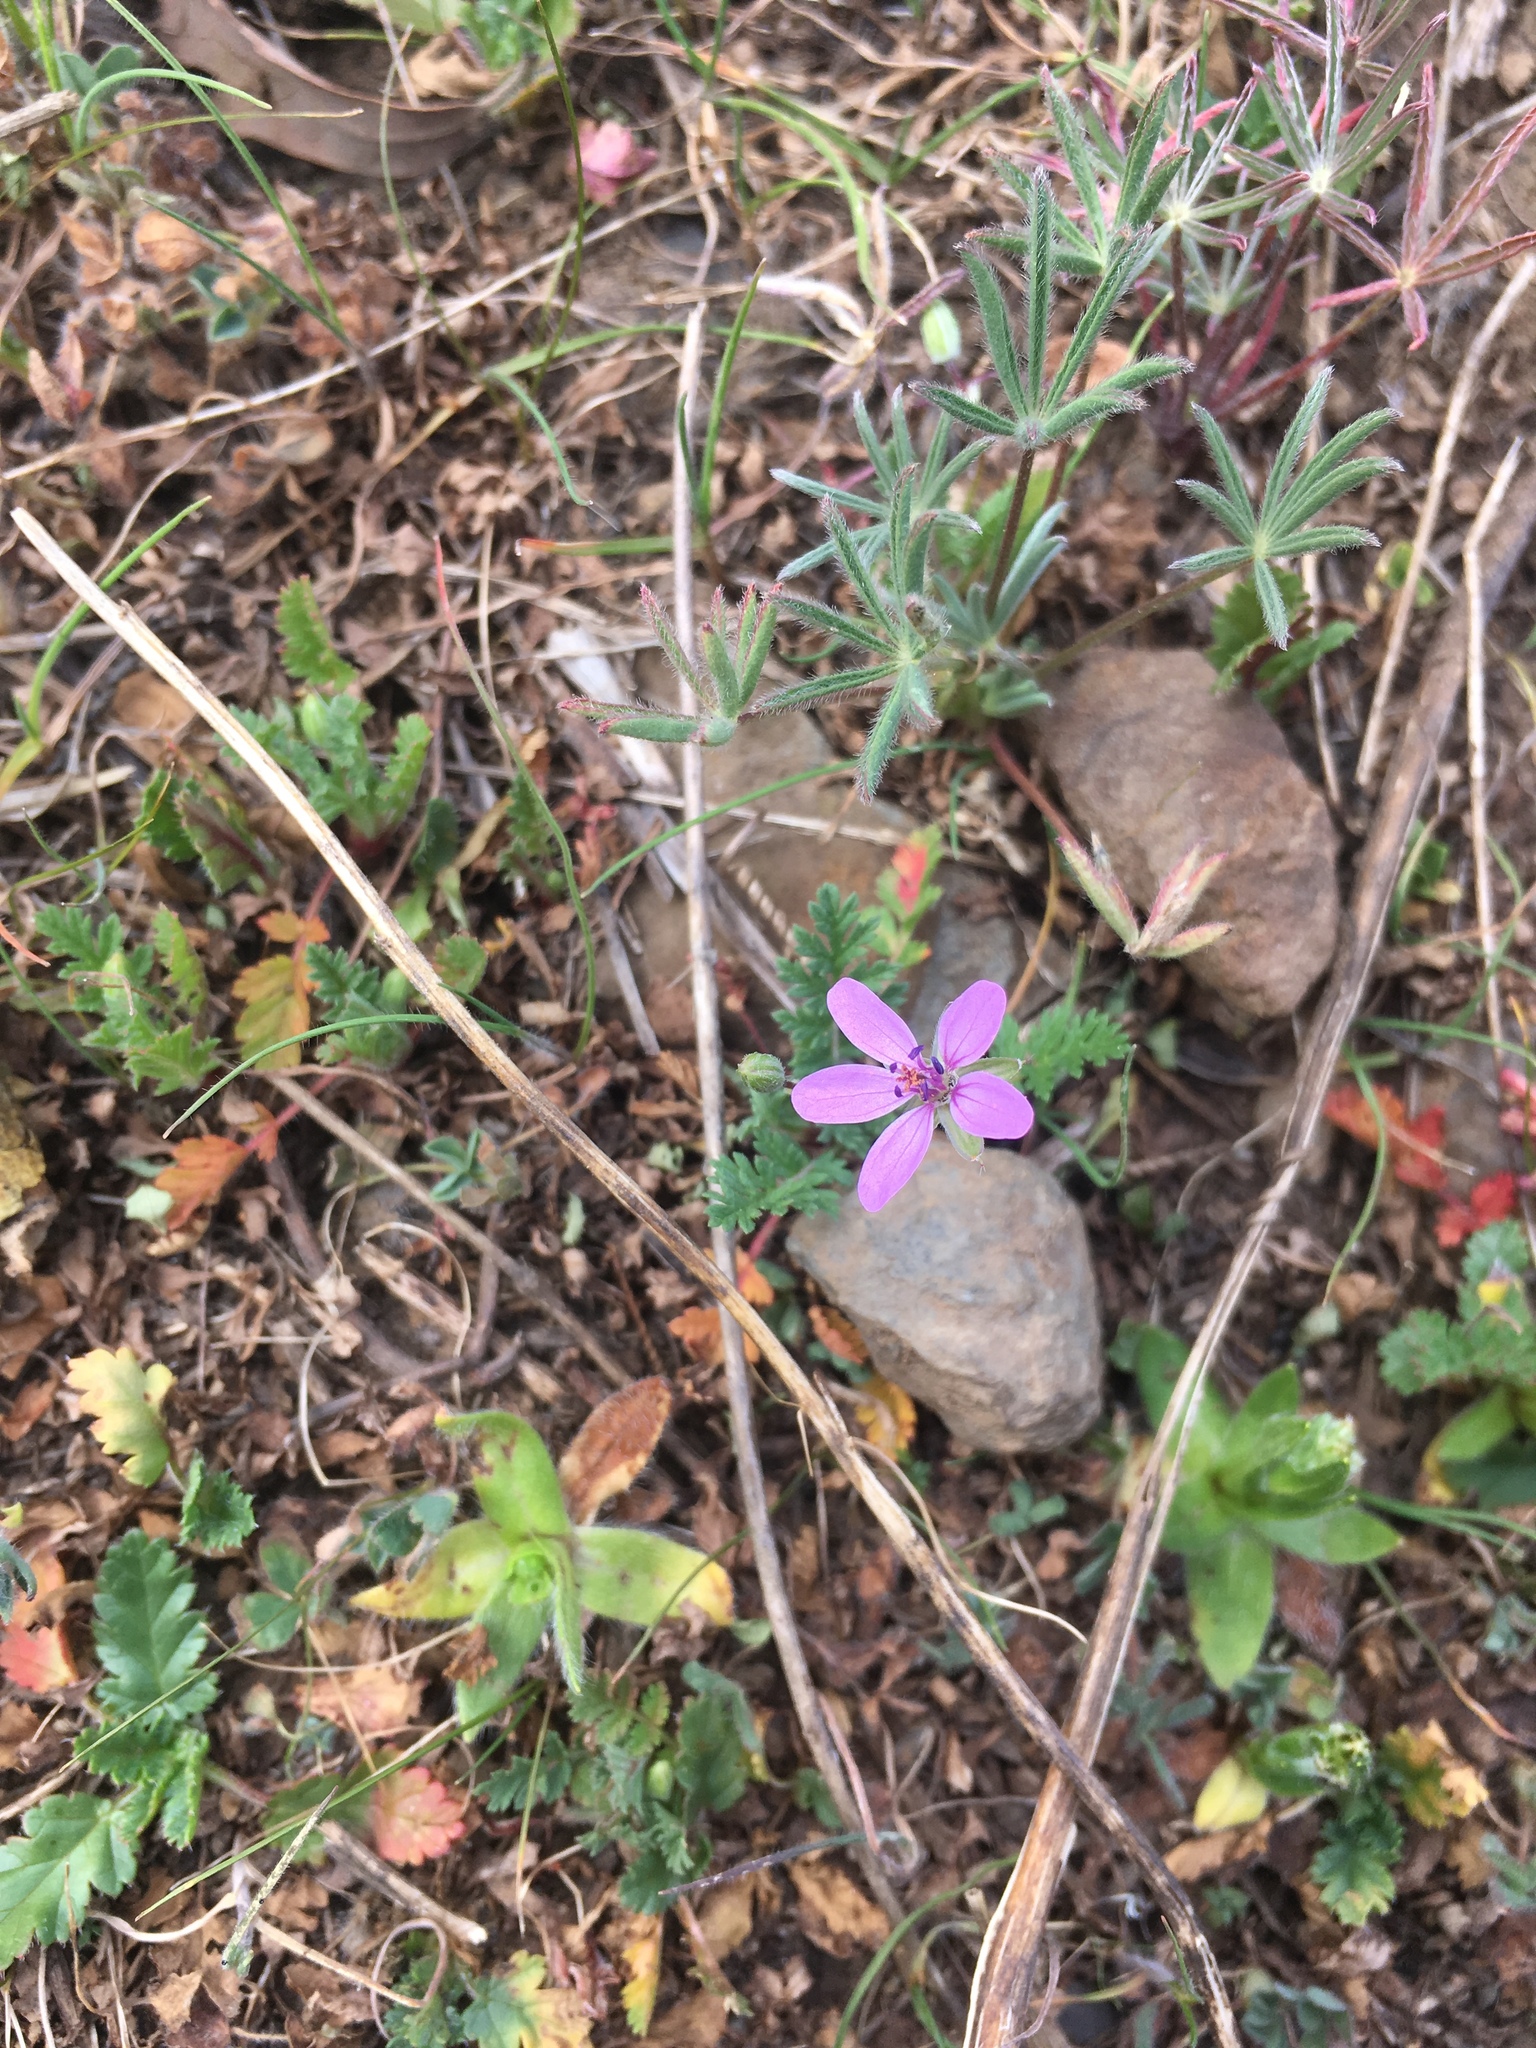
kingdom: Plantae
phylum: Tracheophyta
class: Magnoliopsida
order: Geraniales
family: Geraniaceae
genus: Erodium
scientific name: Erodium cicutarium
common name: Common stork's-bill
